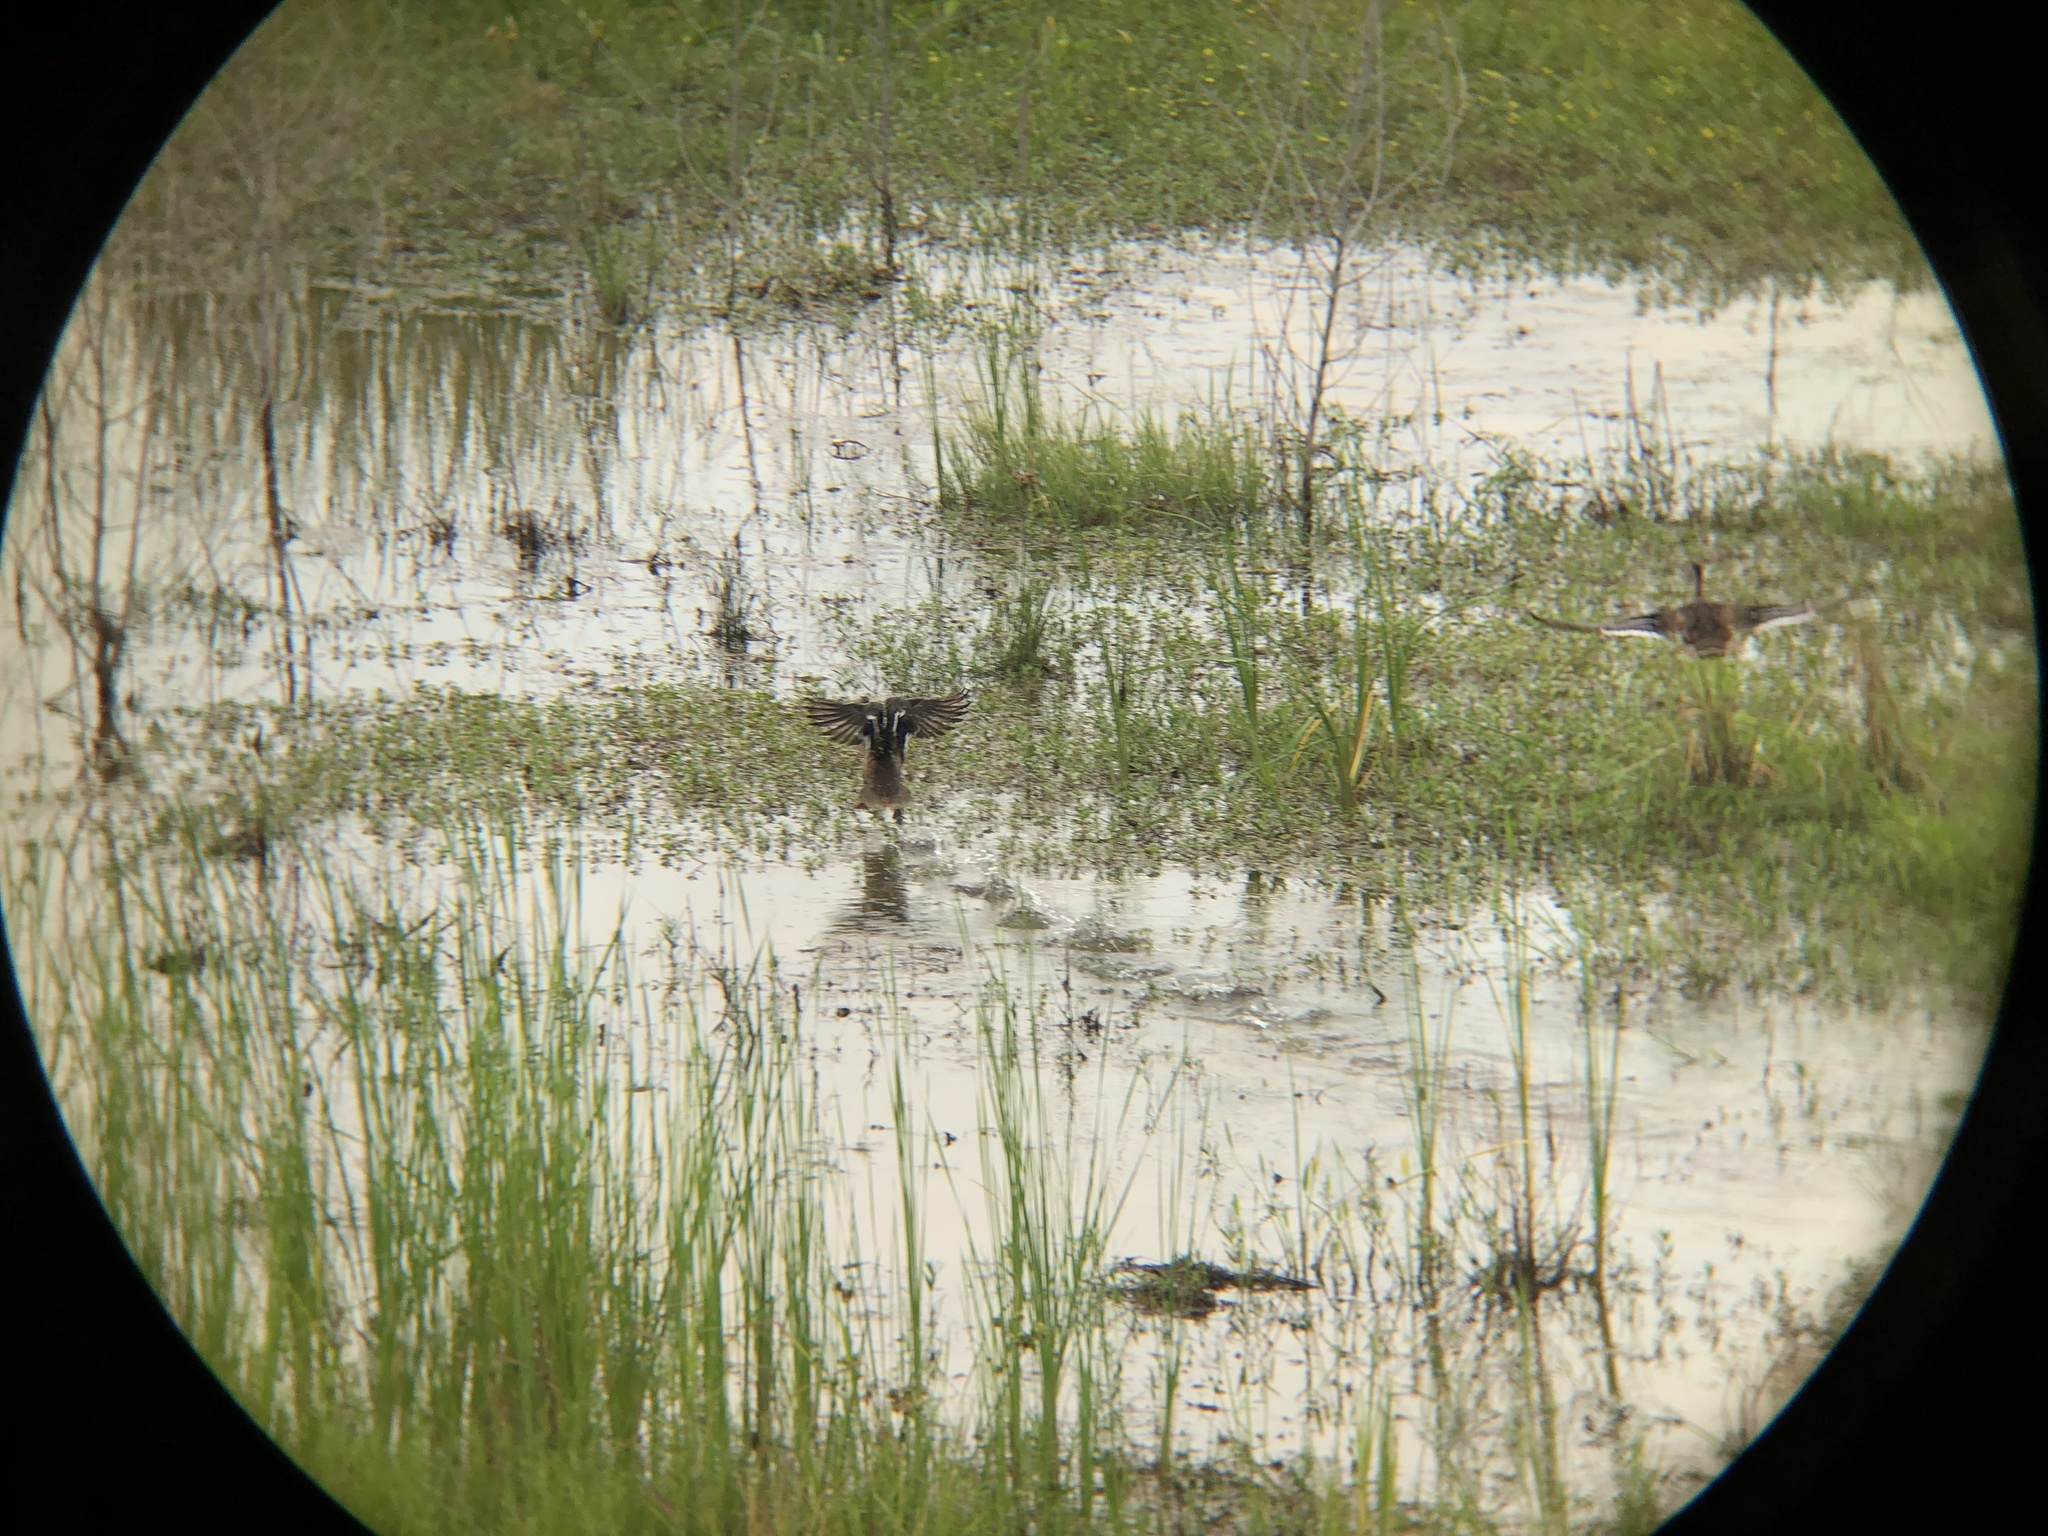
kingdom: Animalia
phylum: Chordata
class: Aves
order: Anseriformes
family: Anatidae
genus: Anas
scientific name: Anas platyrhynchos
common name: Mallard
